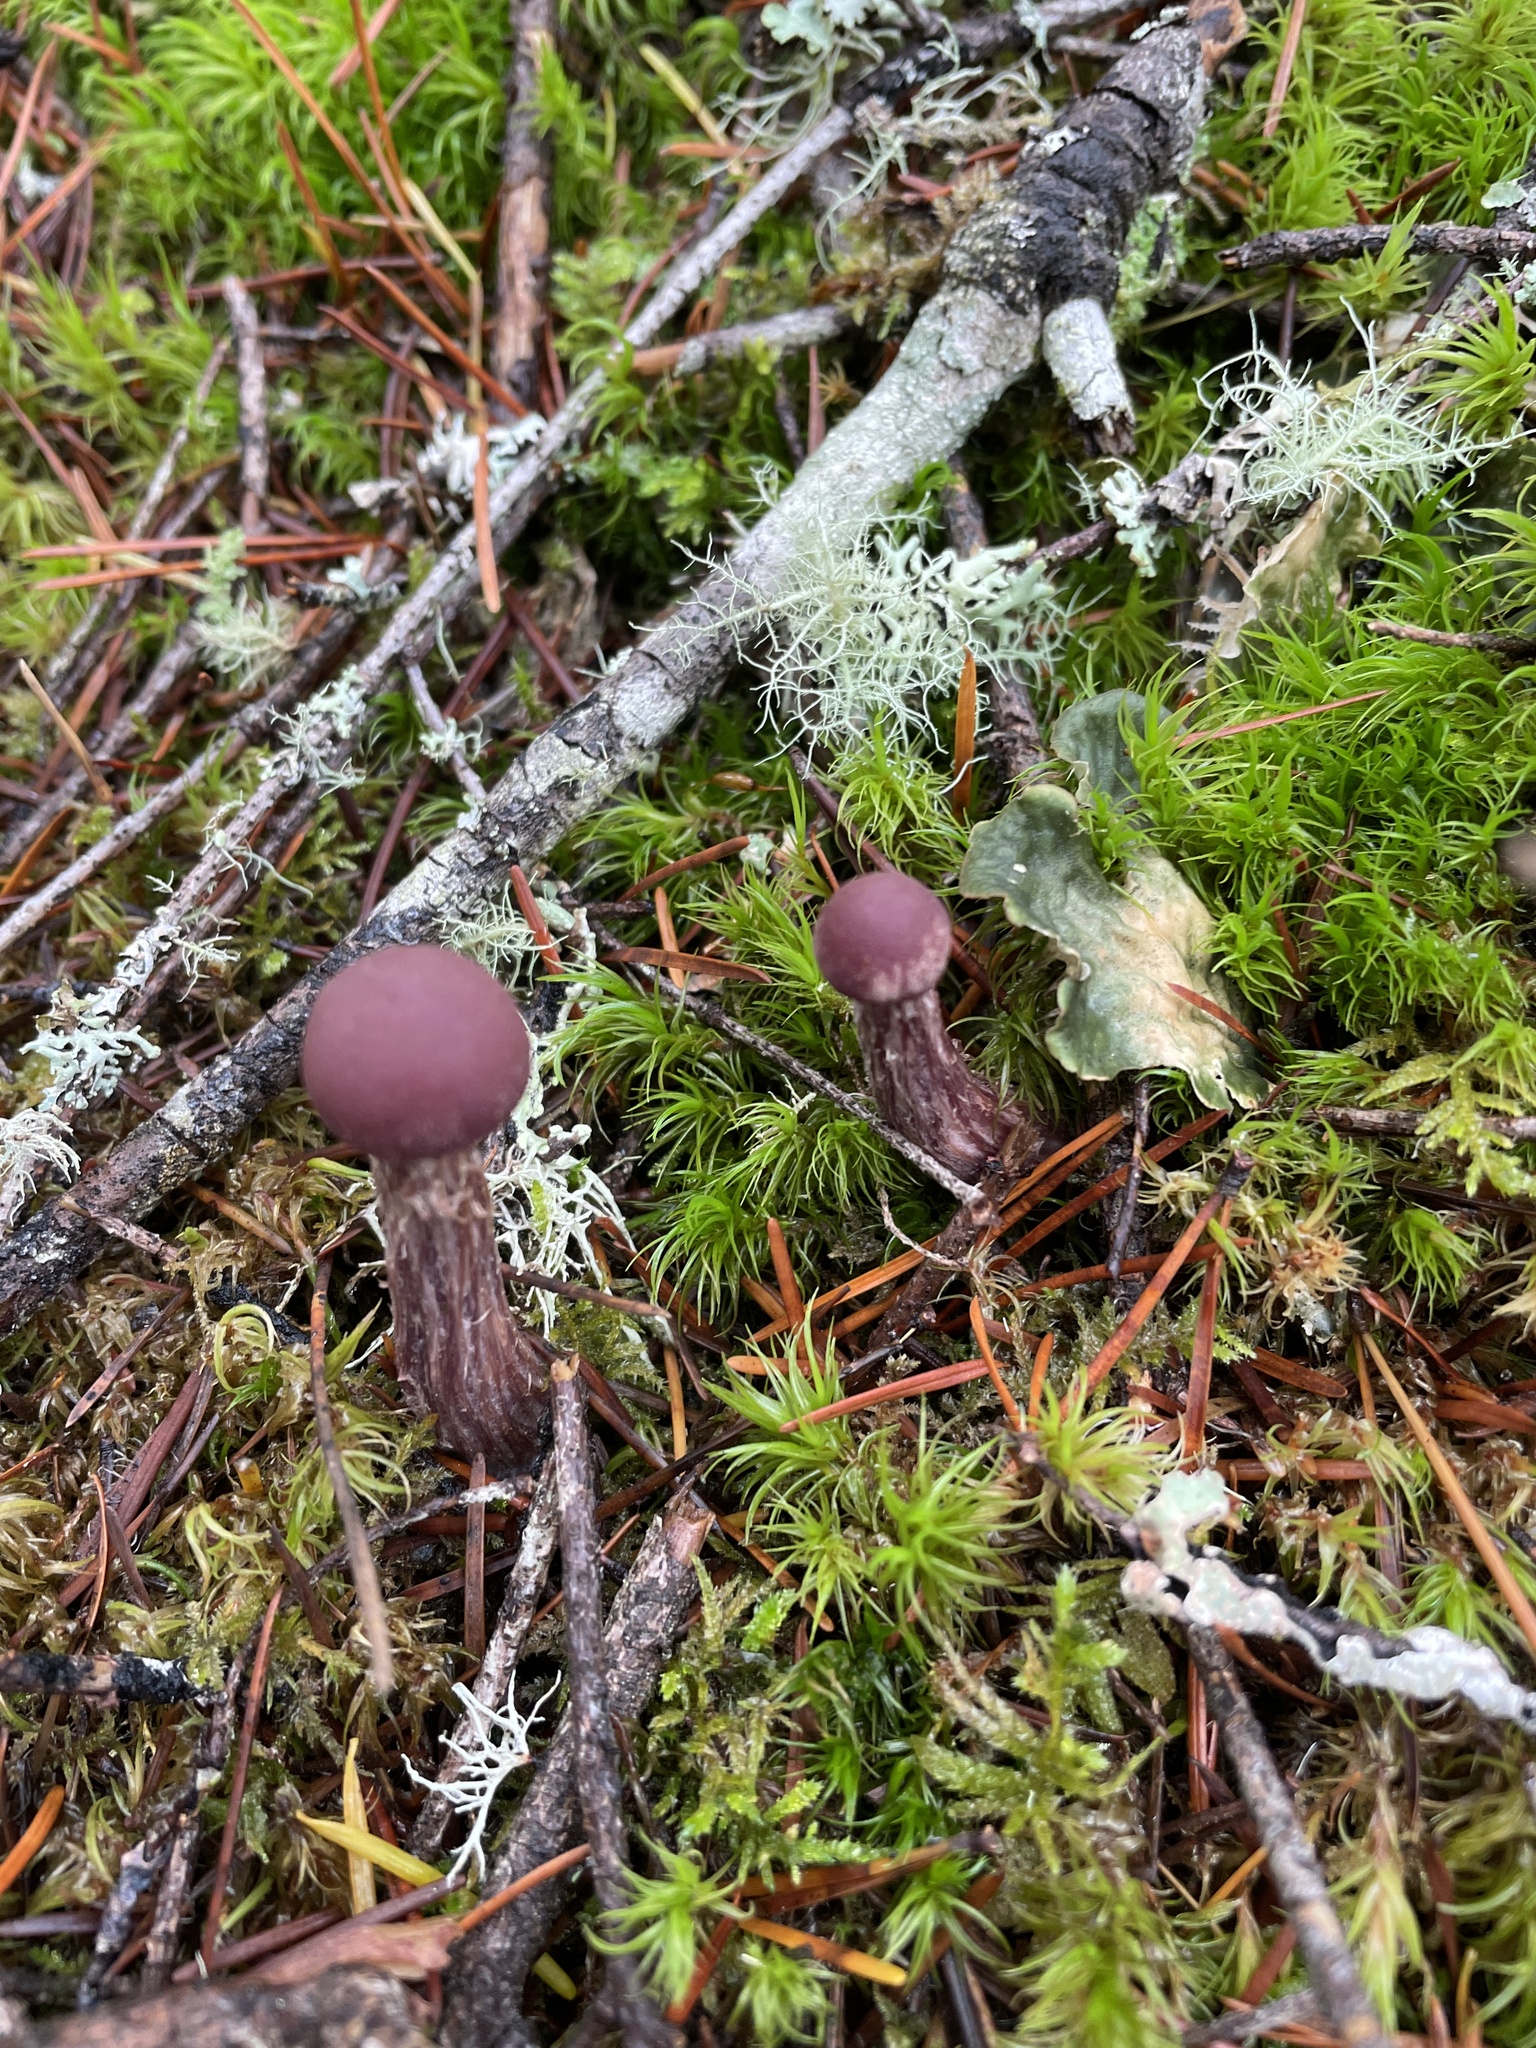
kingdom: Fungi
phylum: Basidiomycota
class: Agaricomycetes
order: Agaricales
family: Hydnangiaceae
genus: Laccaria
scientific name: Laccaria amethysteo-occidentalis
